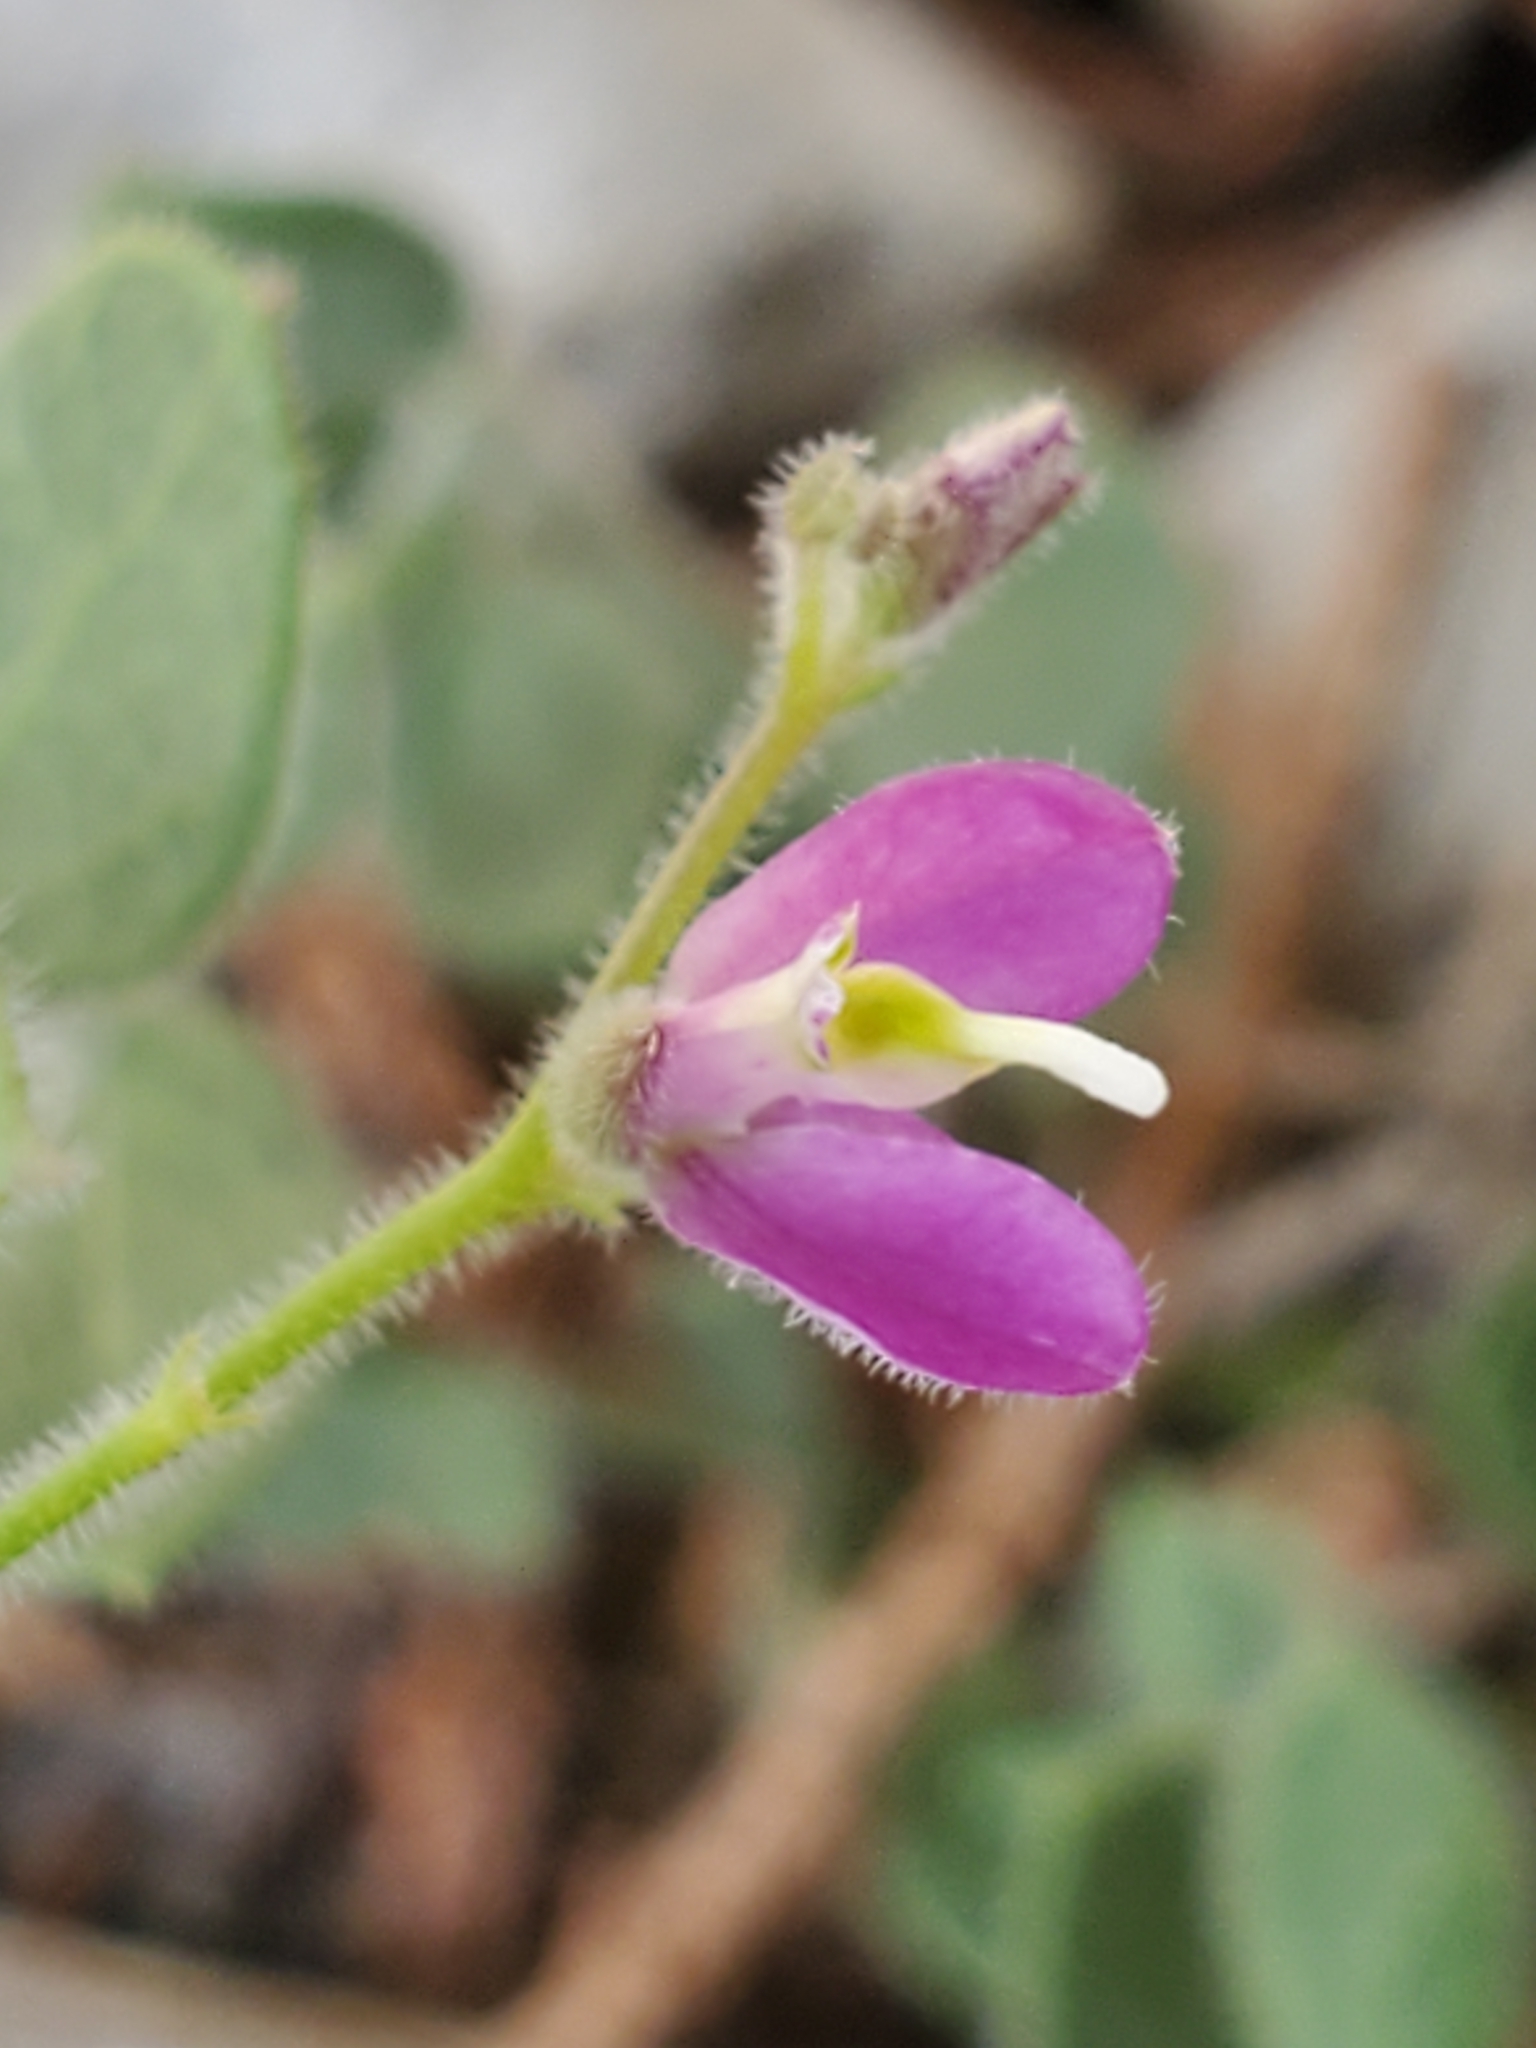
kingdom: Plantae
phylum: Tracheophyta
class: Magnoliopsida
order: Fabales
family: Polygalaceae
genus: Rhinotropis
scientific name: Rhinotropis lindheimeri
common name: Shrubby milkwort
